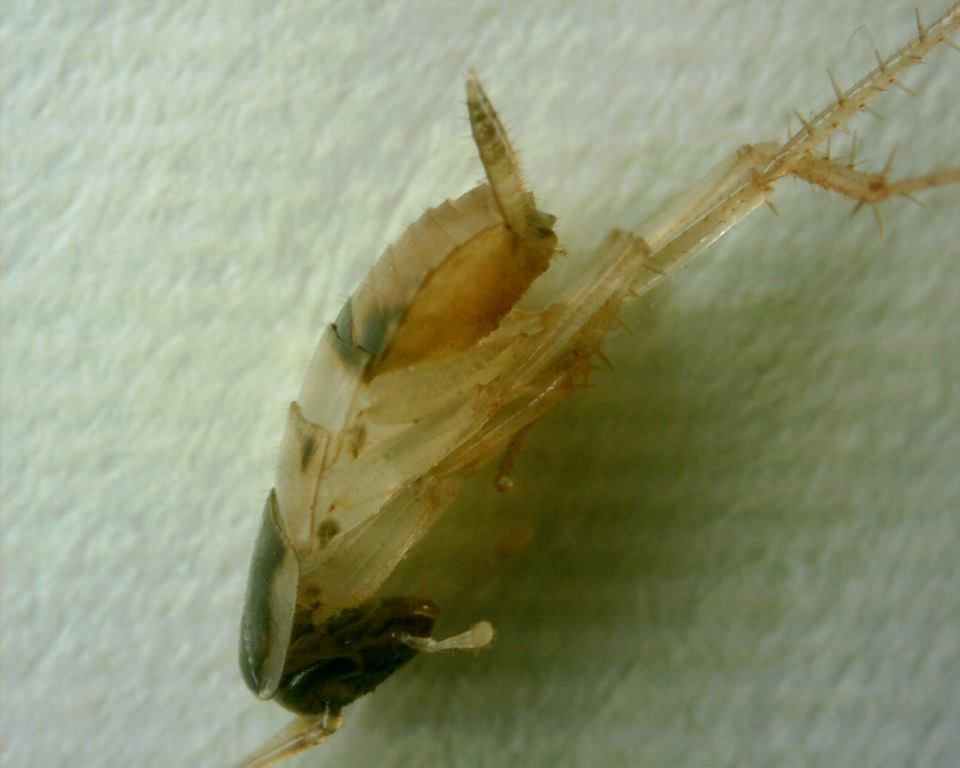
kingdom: Animalia
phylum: Arthropoda
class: Insecta
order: Blattodea
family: Ectobiidae
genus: Supella
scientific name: Supella longipalpa
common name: Brown-banded cockroach
